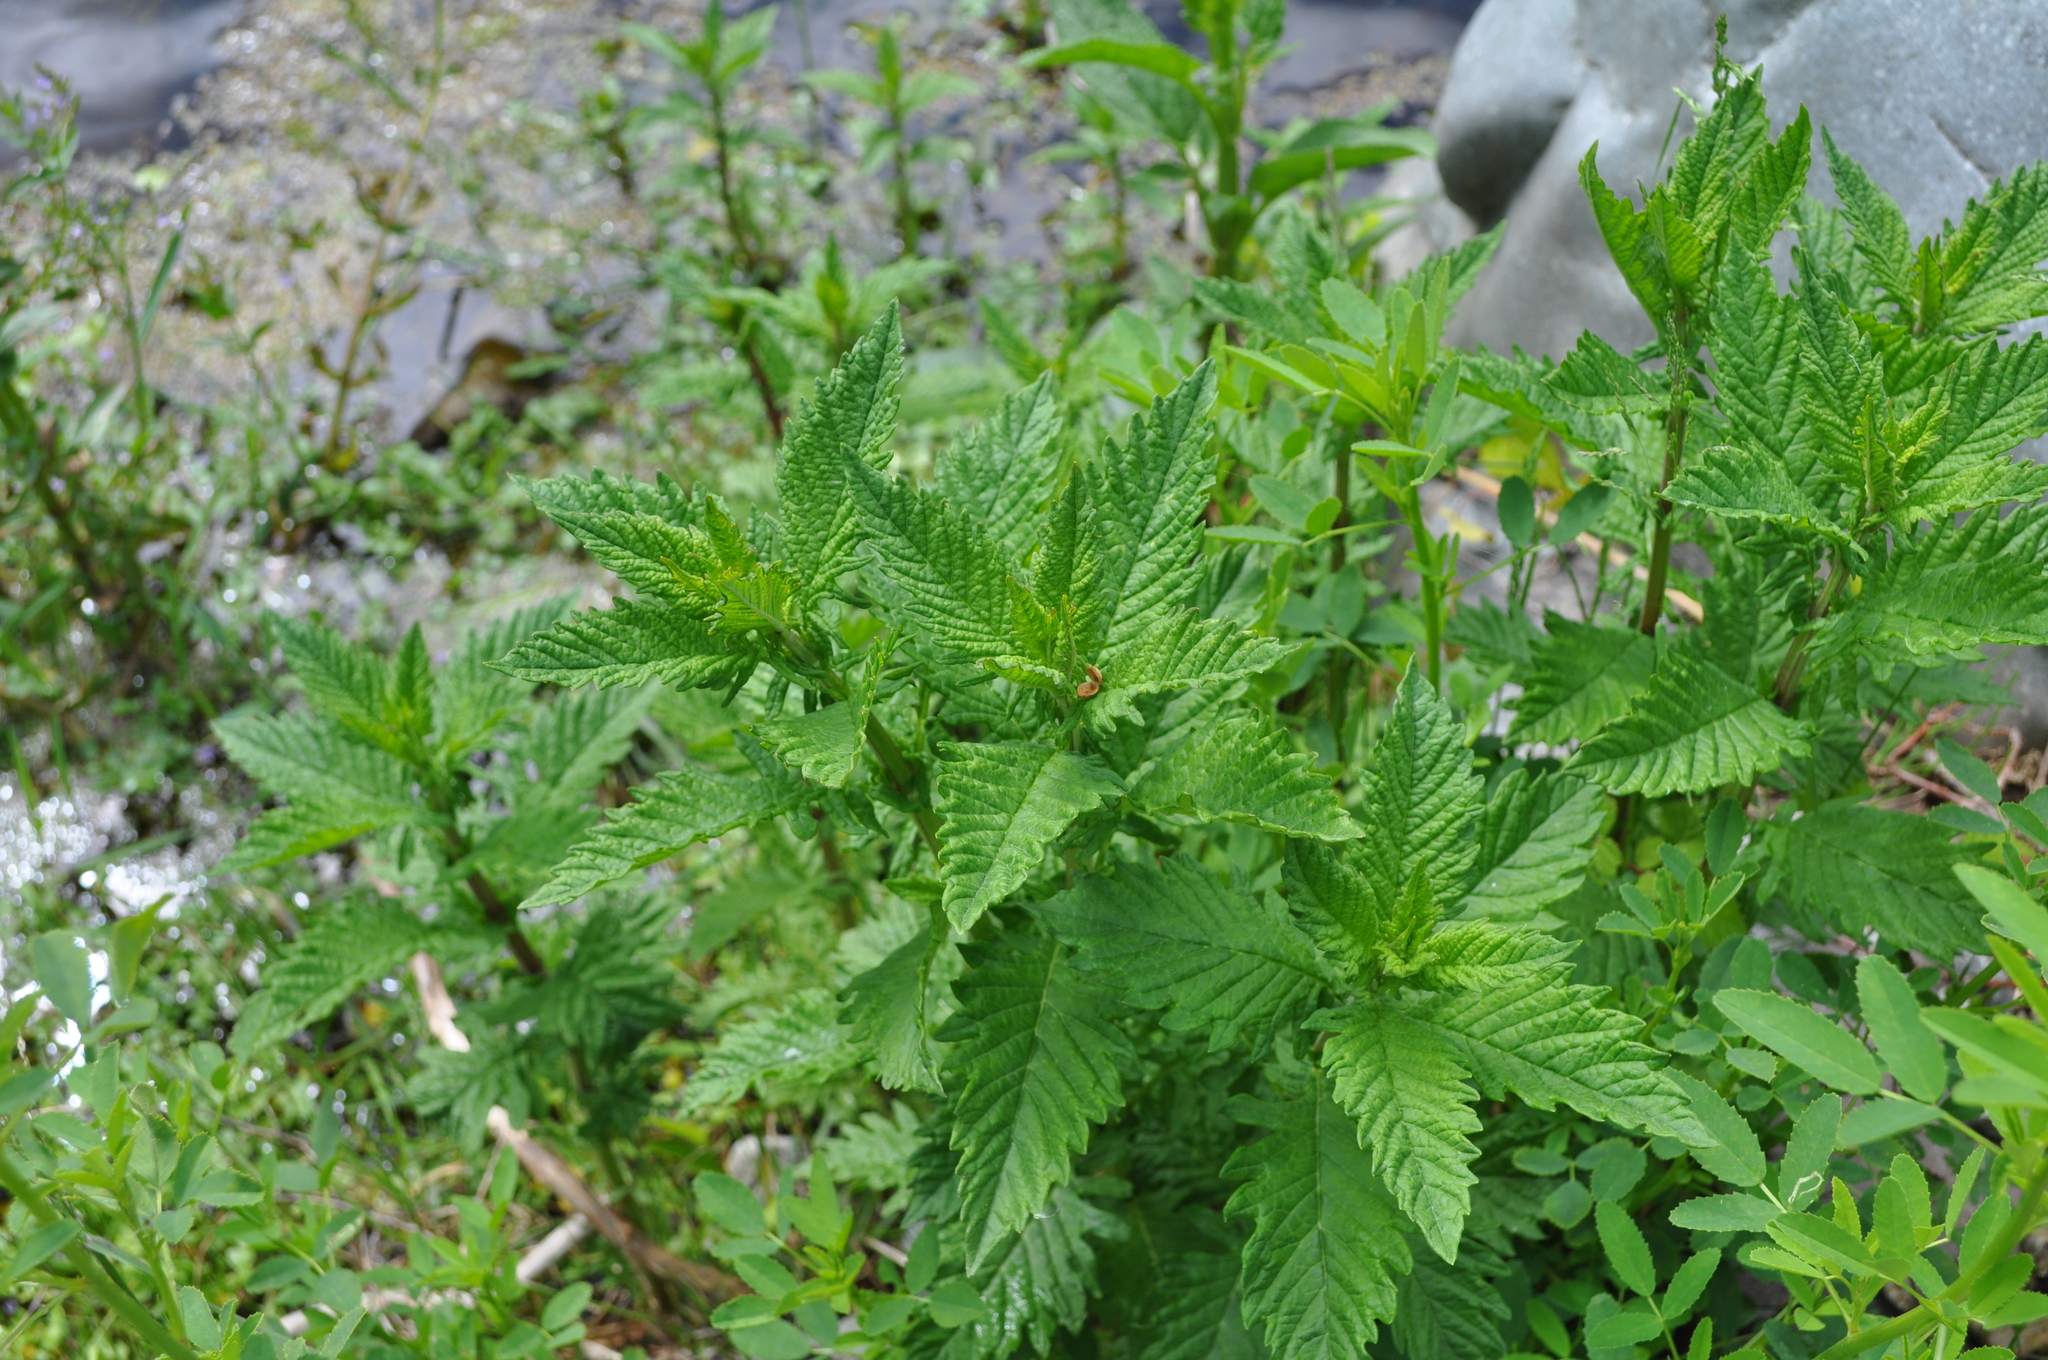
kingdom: Plantae
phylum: Tracheophyta
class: Magnoliopsida
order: Lamiales
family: Lamiaceae
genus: Lycopus
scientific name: Lycopus europaeus
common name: European bugleweed
